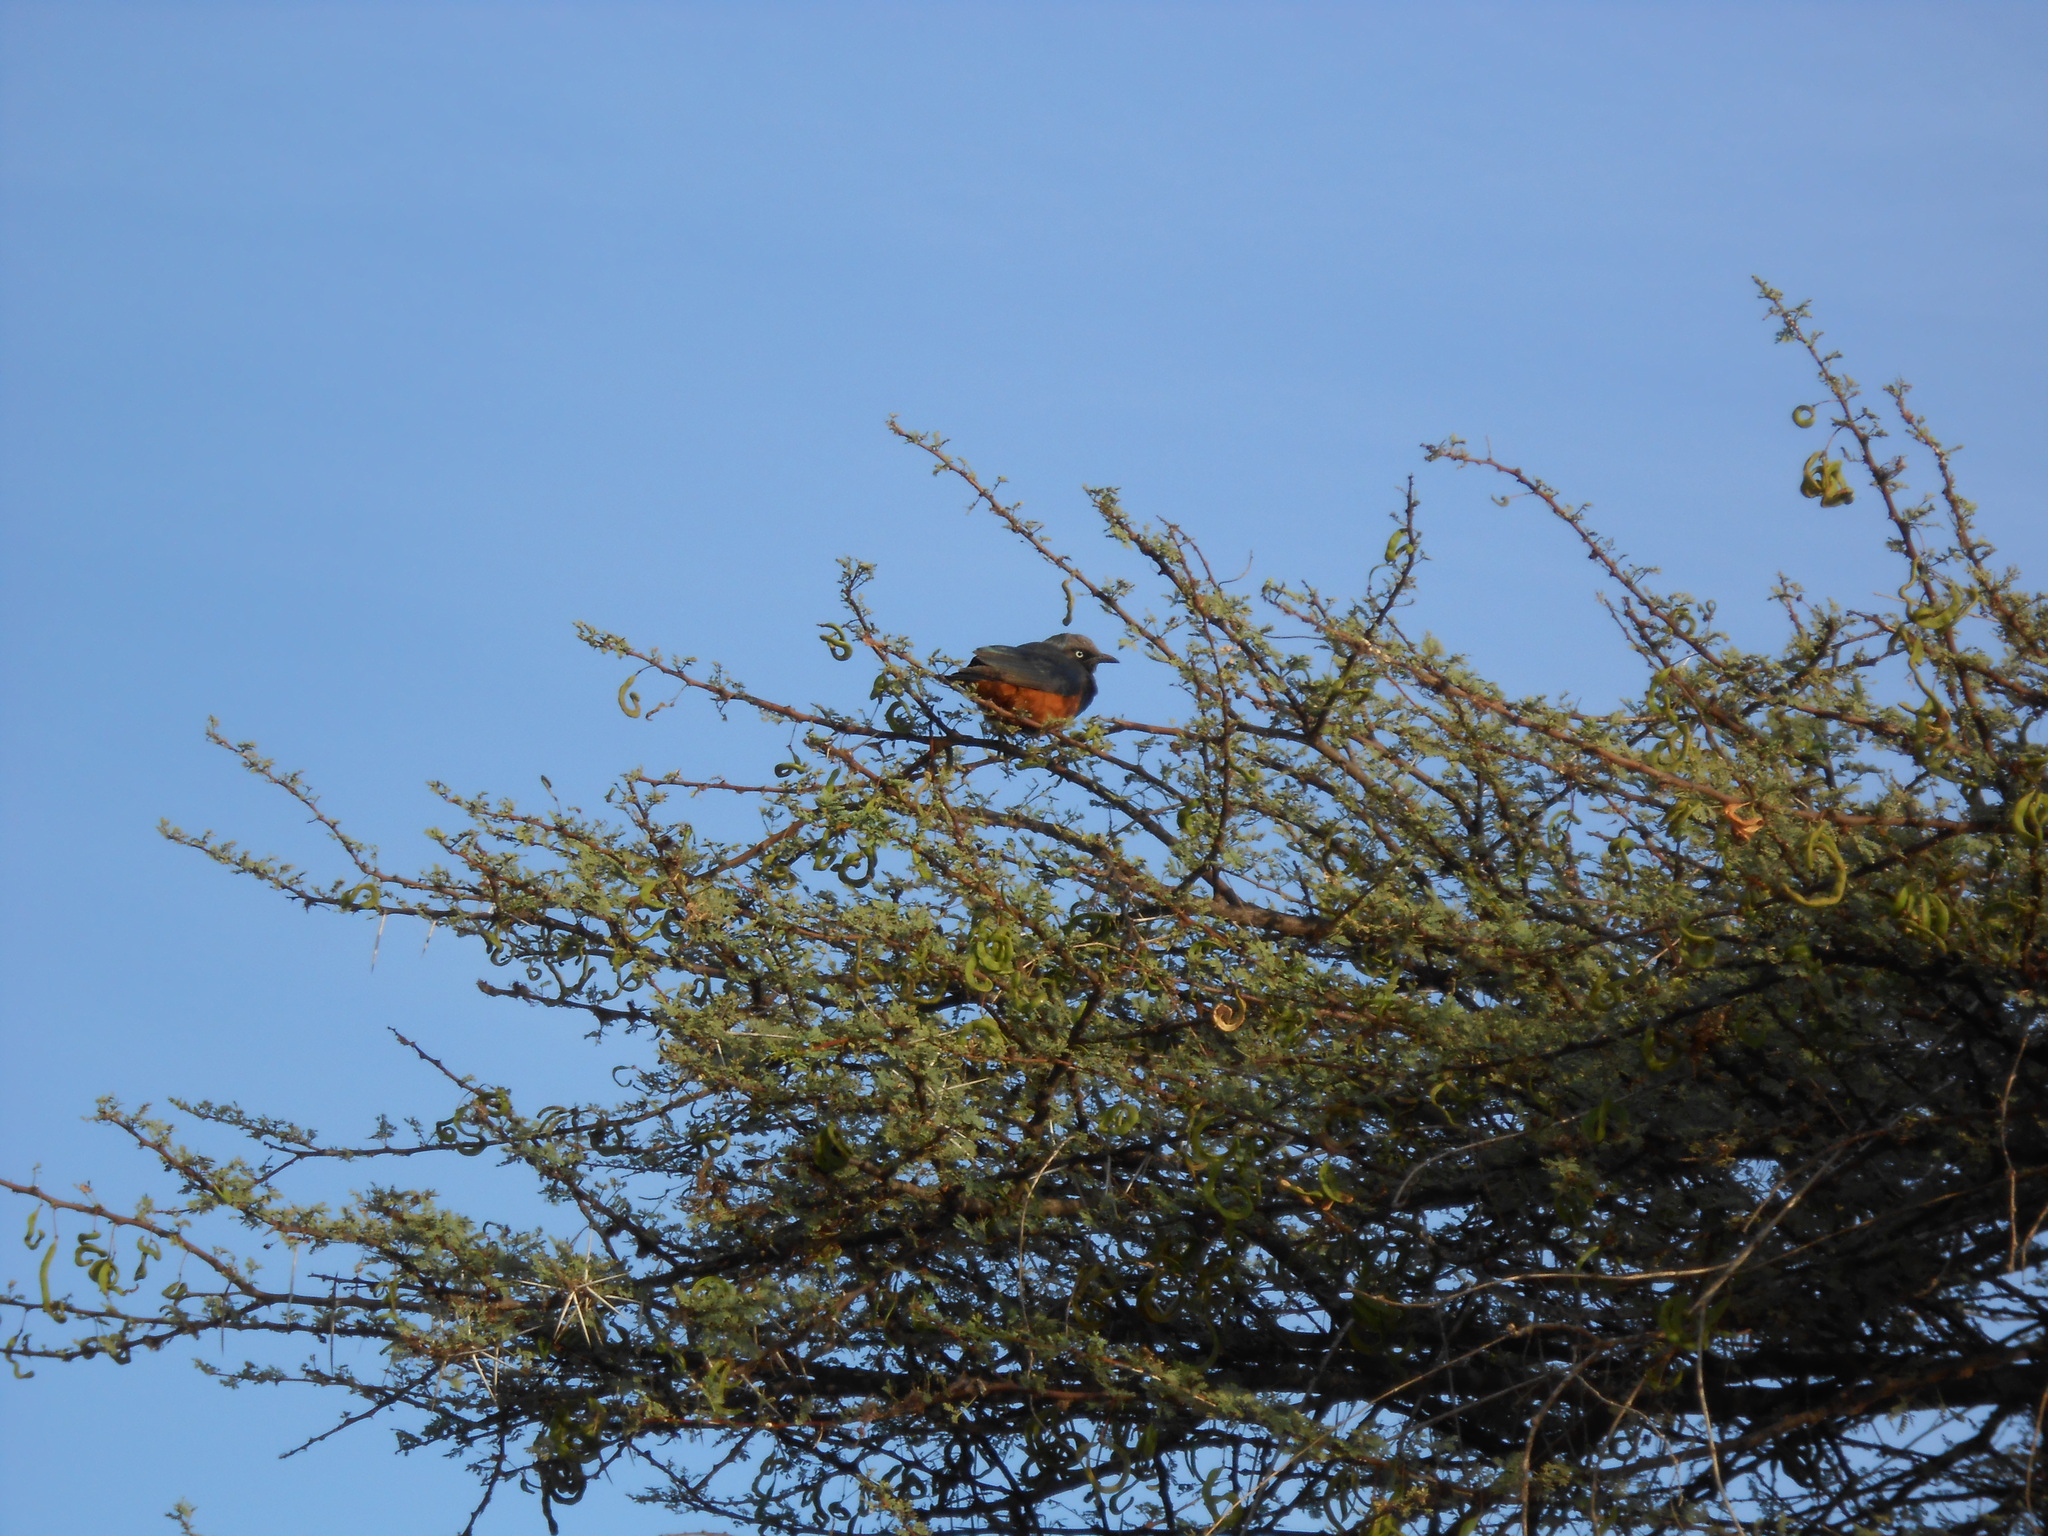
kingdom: Animalia
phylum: Chordata
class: Aves
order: Passeriformes
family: Sturnidae
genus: Lamprotornis
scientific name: Lamprotornis pulcher
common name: Chestnut-bellied starling
